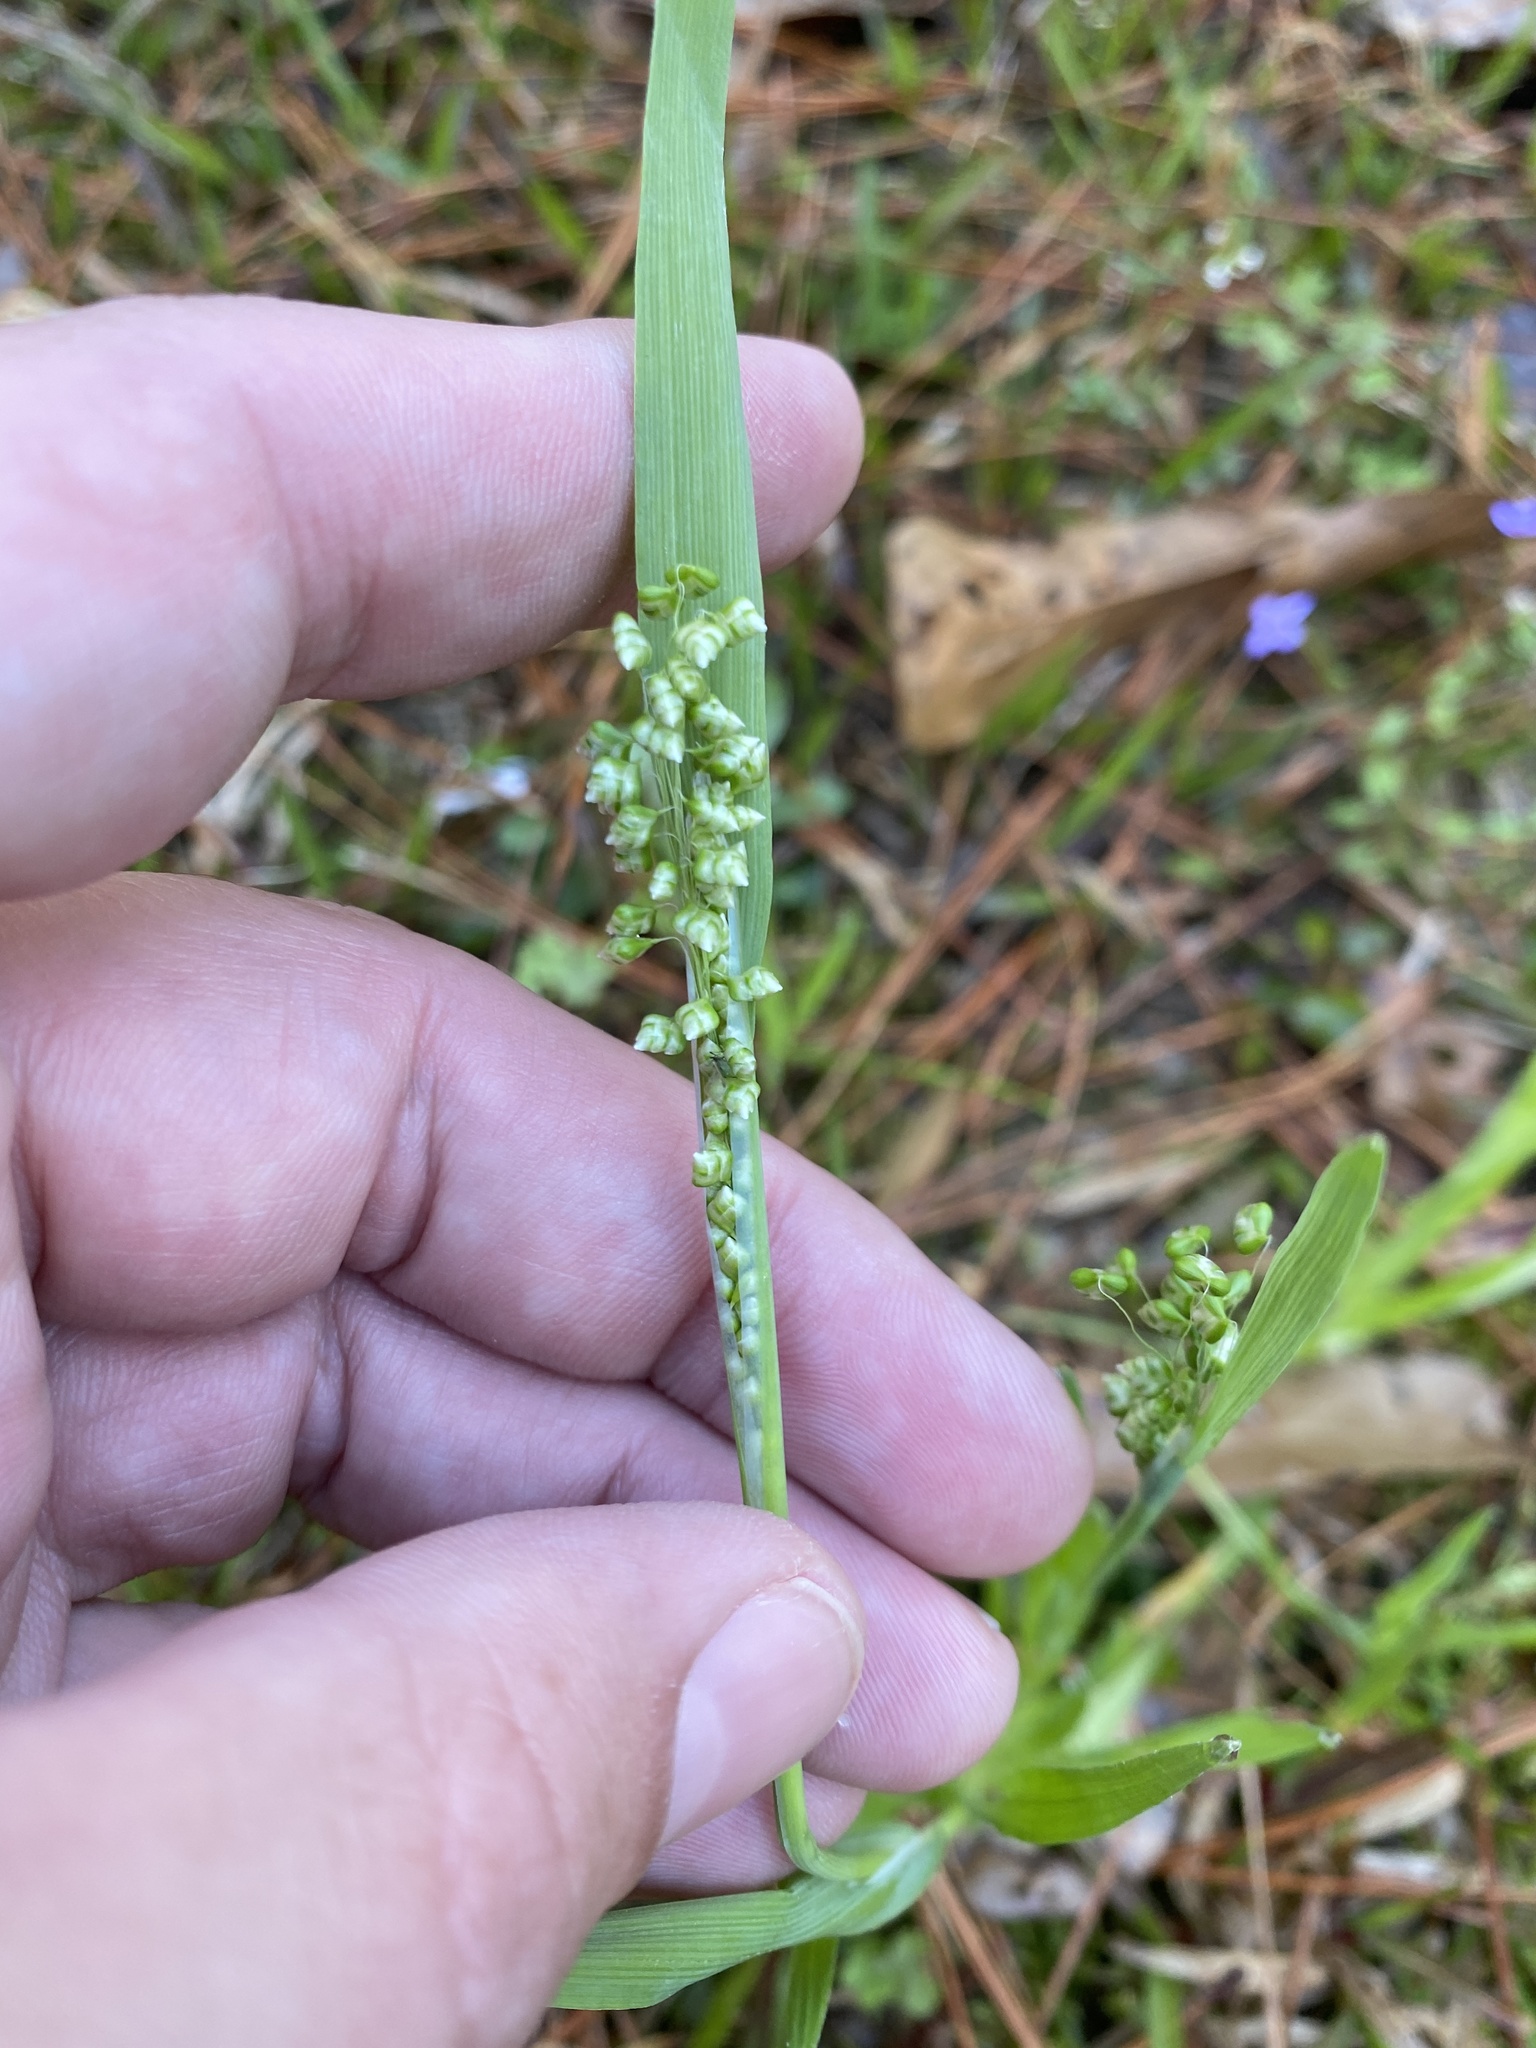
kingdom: Plantae
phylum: Tracheophyta
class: Liliopsida
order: Poales
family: Poaceae
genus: Briza
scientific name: Briza minor
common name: Lesser quaking-grass
